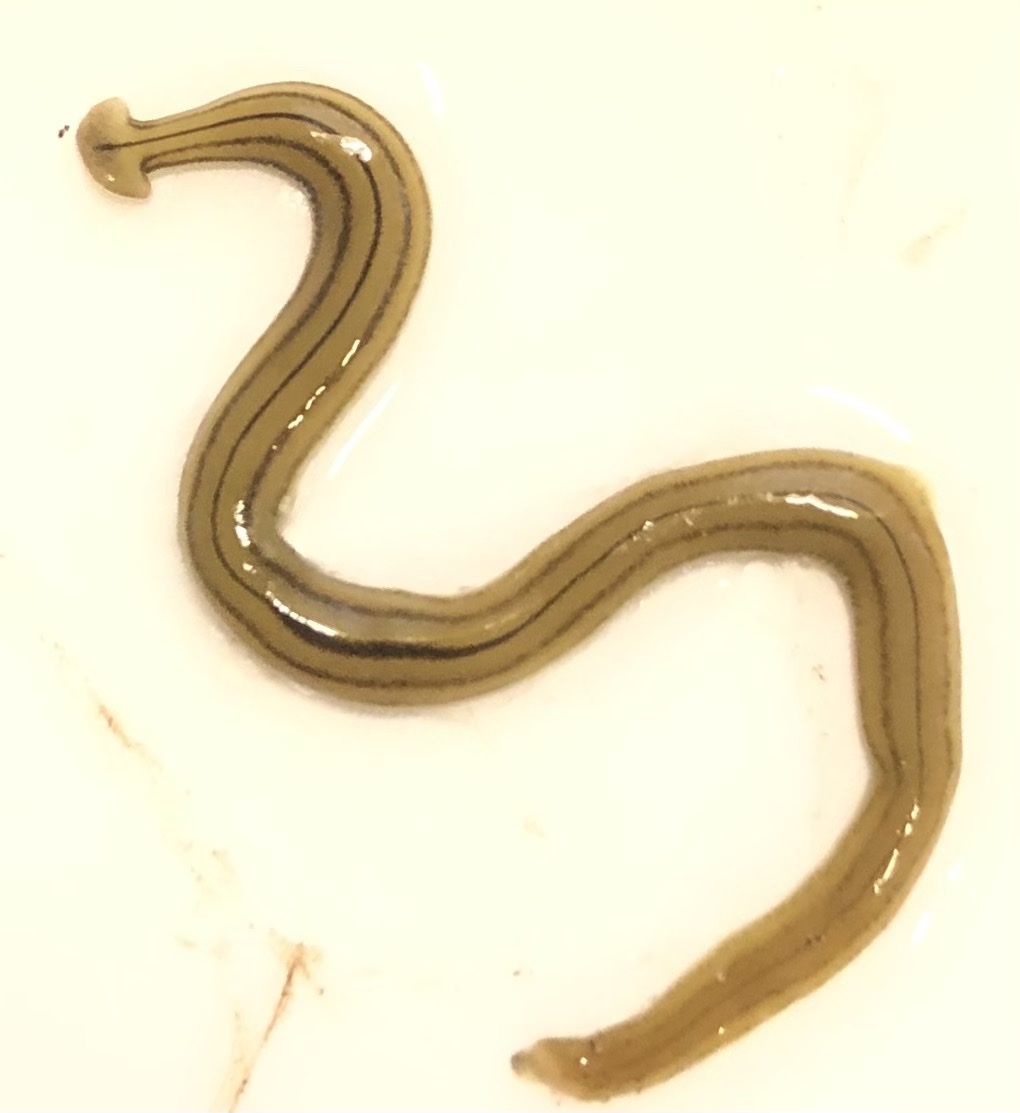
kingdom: Animalia
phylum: Platyhelminthes
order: Tricladida
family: Geoplanidae
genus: Diversibipalium
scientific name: Diversibipalium multilineatum
